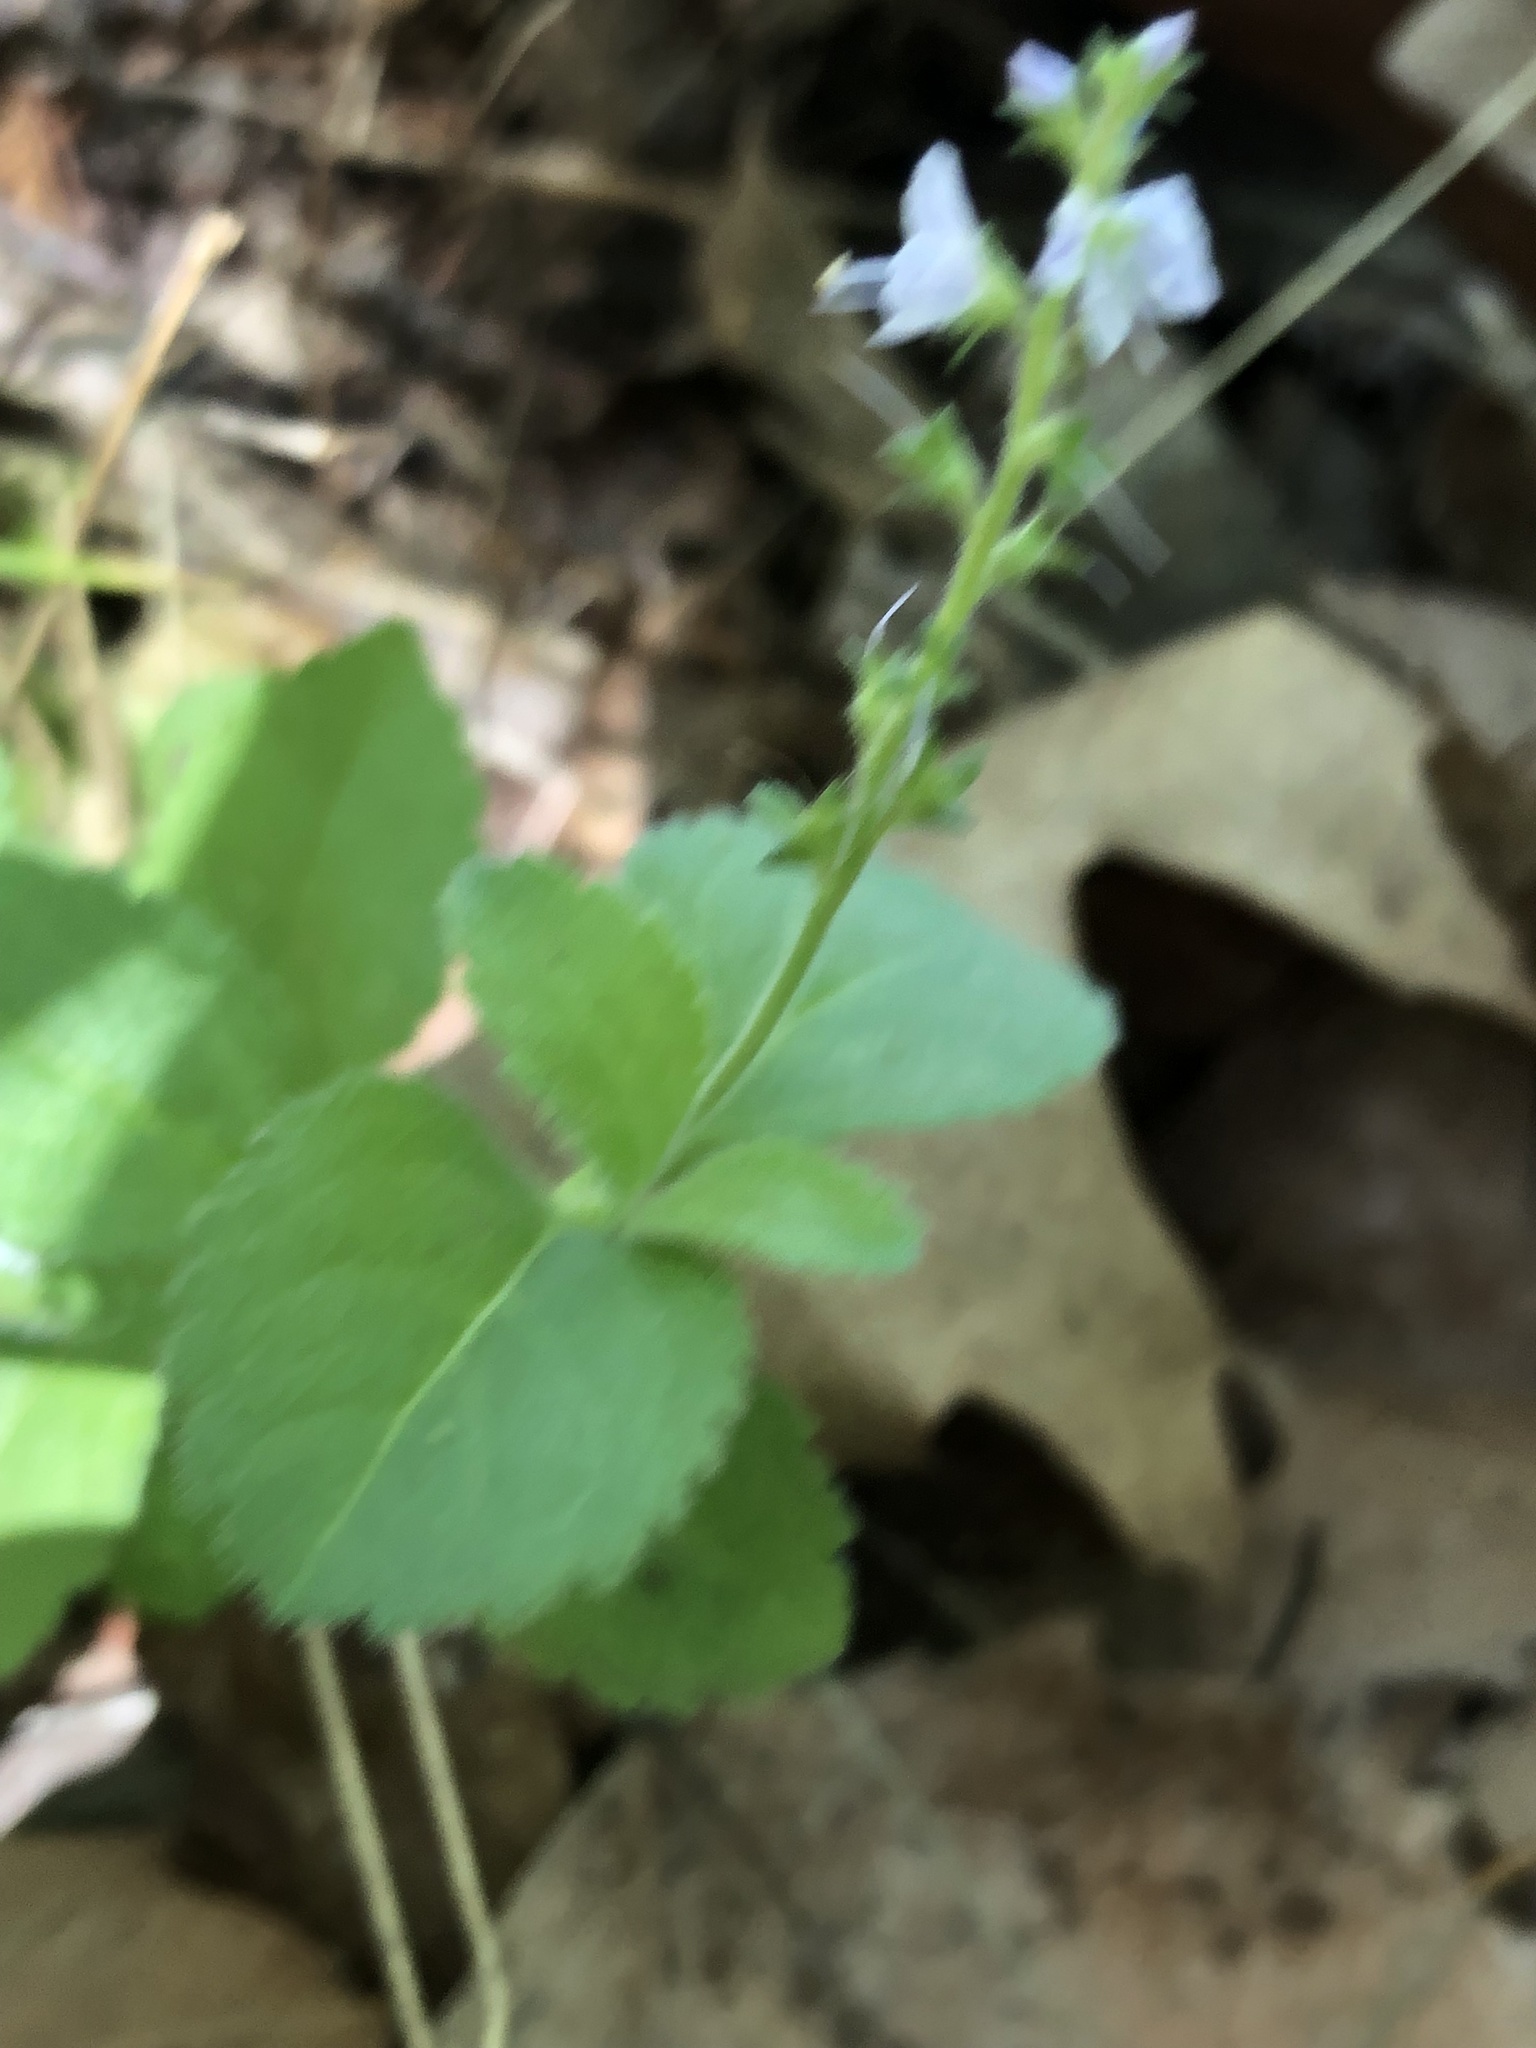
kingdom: Plantae
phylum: Tracheophyta
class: Magnoliopsida
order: Lamiales
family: Plantaginaceae
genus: Veronica
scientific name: Veronica officinalis
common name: Common speedwell
